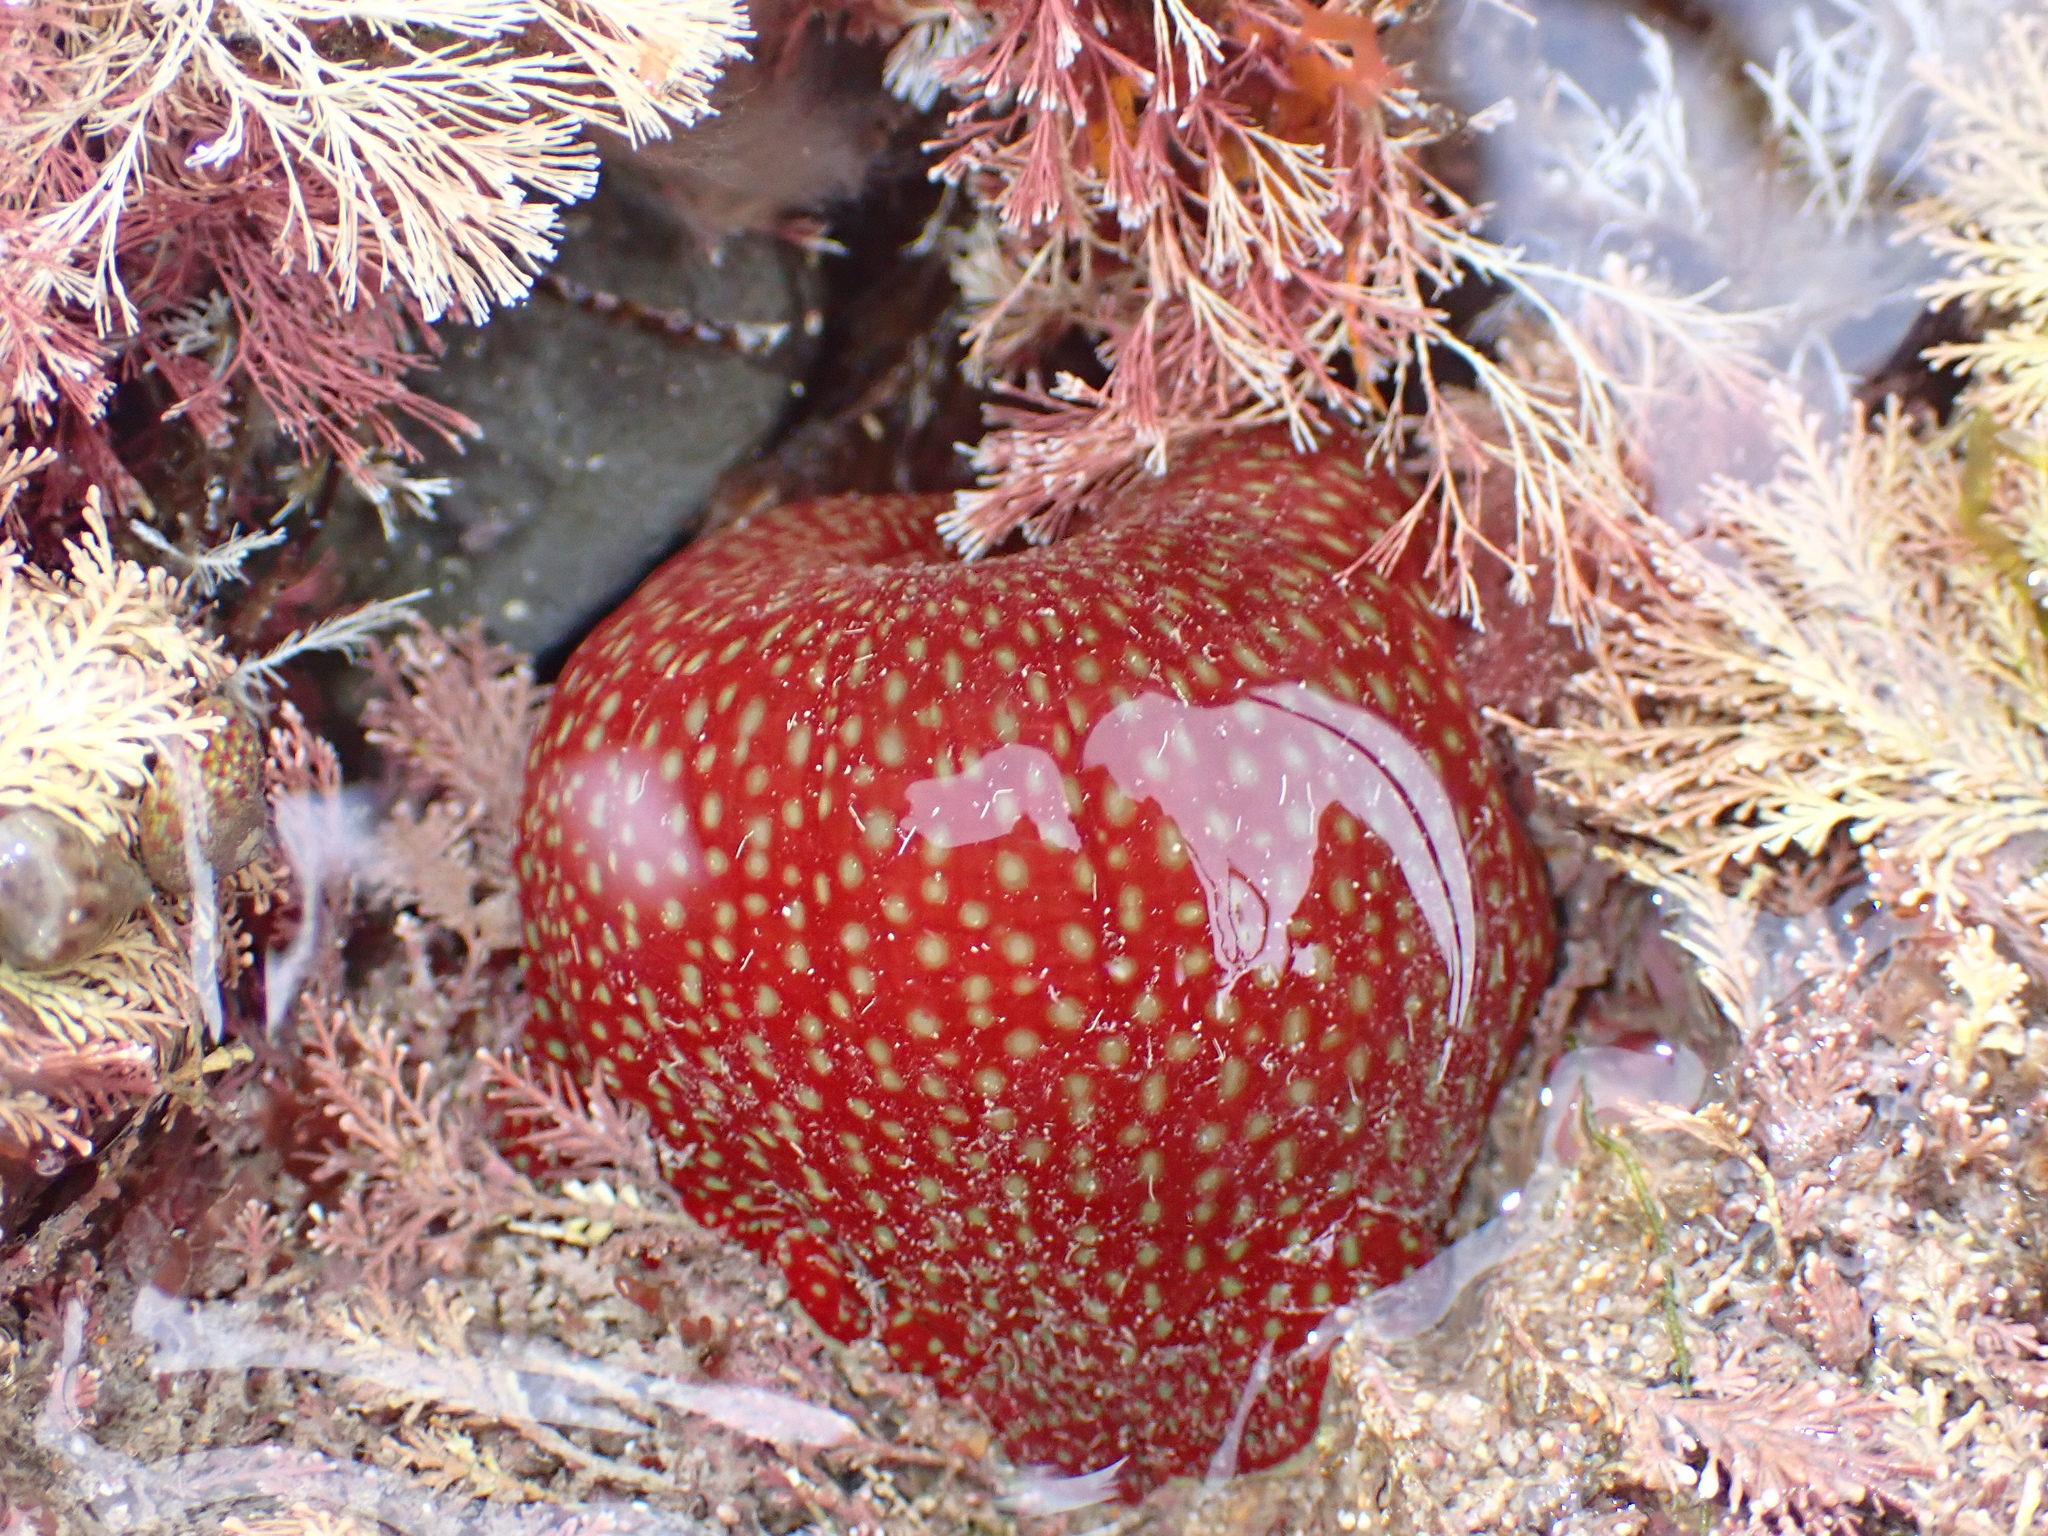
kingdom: Animalia
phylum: Cnidaria
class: Anthozoa
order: Actiniaria
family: Actiniidae
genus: Actinia
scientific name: Actinia fragacea
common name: Strawberry anemone
